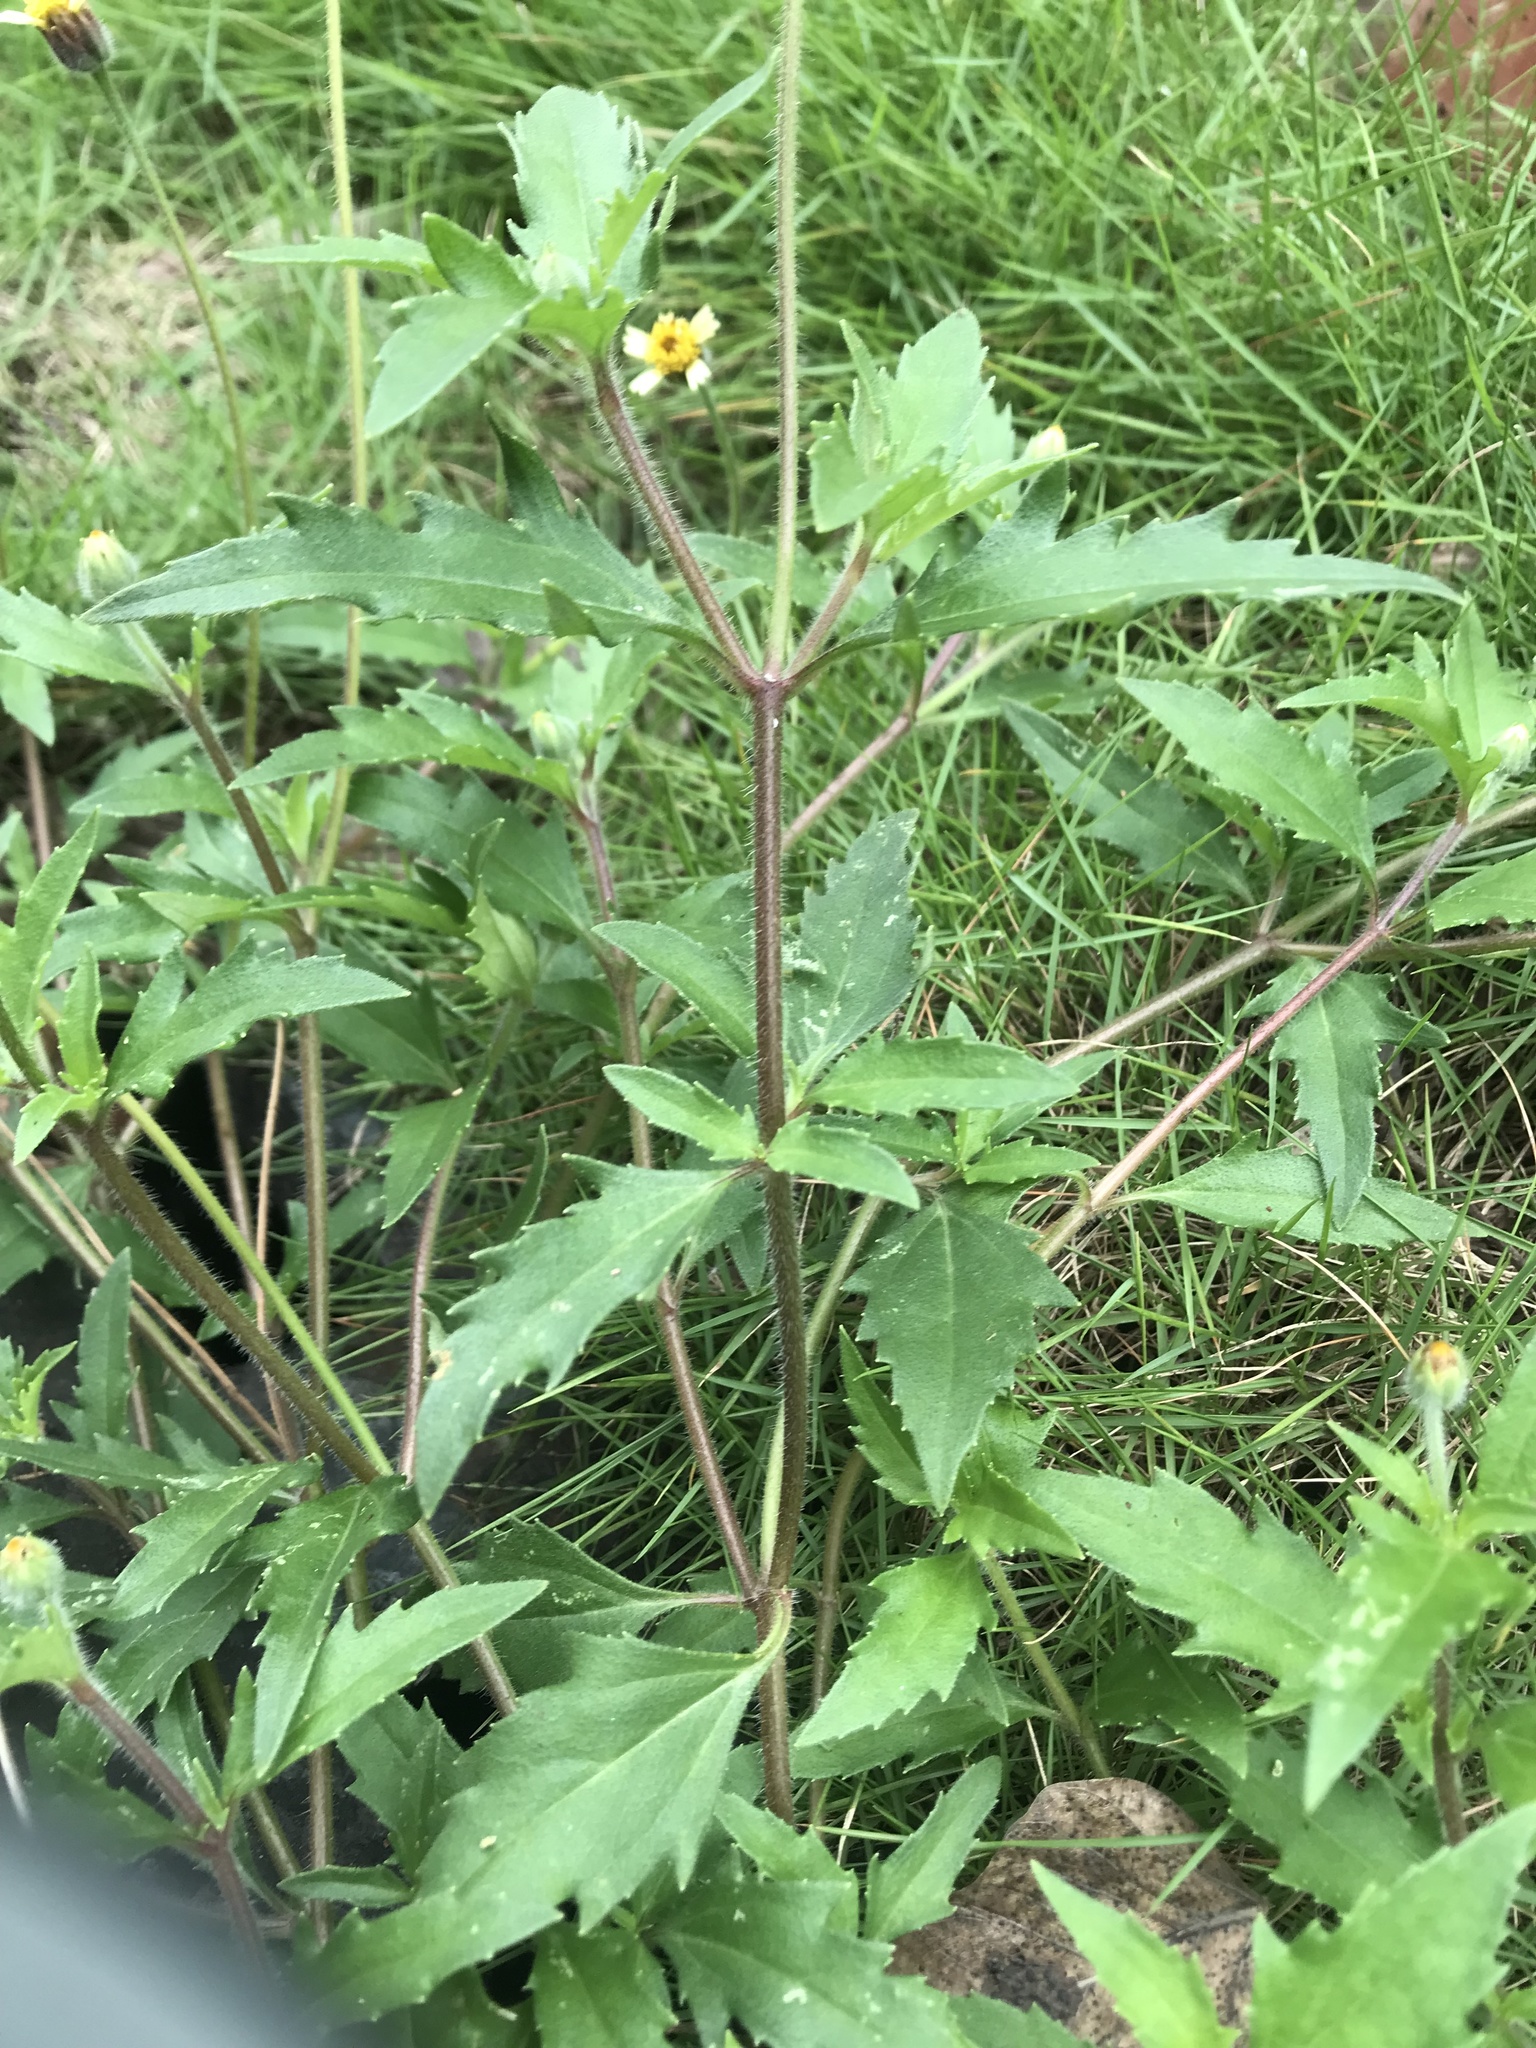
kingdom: Plantae
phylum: Tracheophyta
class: Magnoliopsida
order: Asterales
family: Asteraceae
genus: Tridax
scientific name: Tridax procumbens
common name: Coatbuttons
